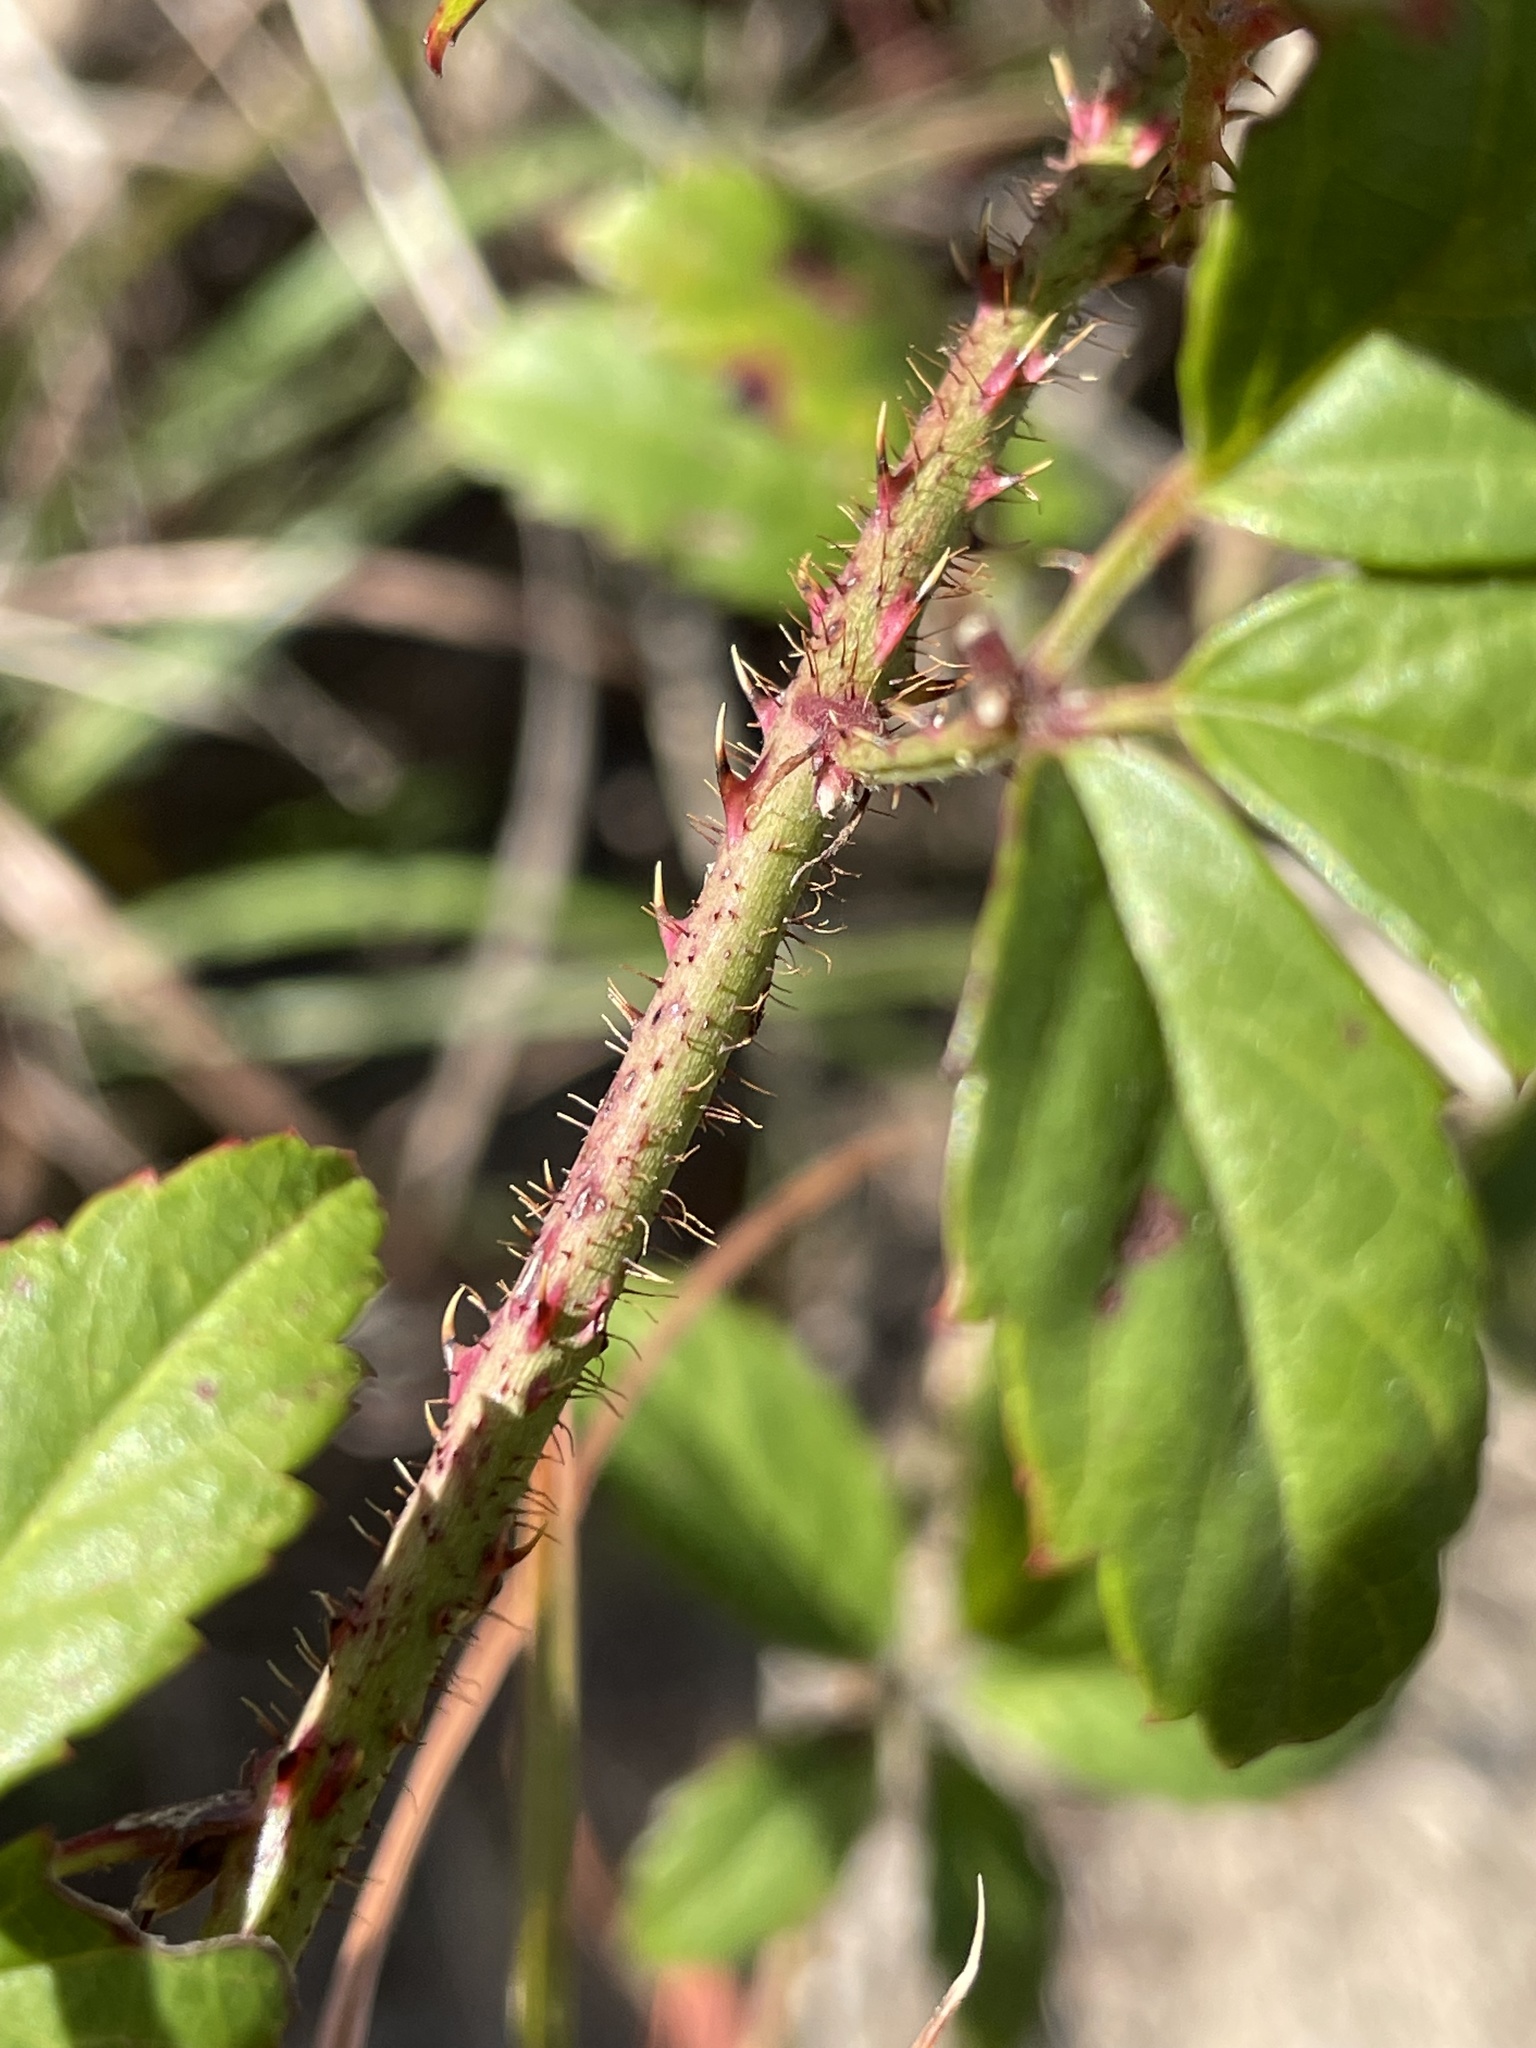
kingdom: Plantae
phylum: Tracheophyta
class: Magnoliopsida
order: Rosales
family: Rosaceae
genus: Rubus
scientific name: Rubus trivialis
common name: Southern dewberry
